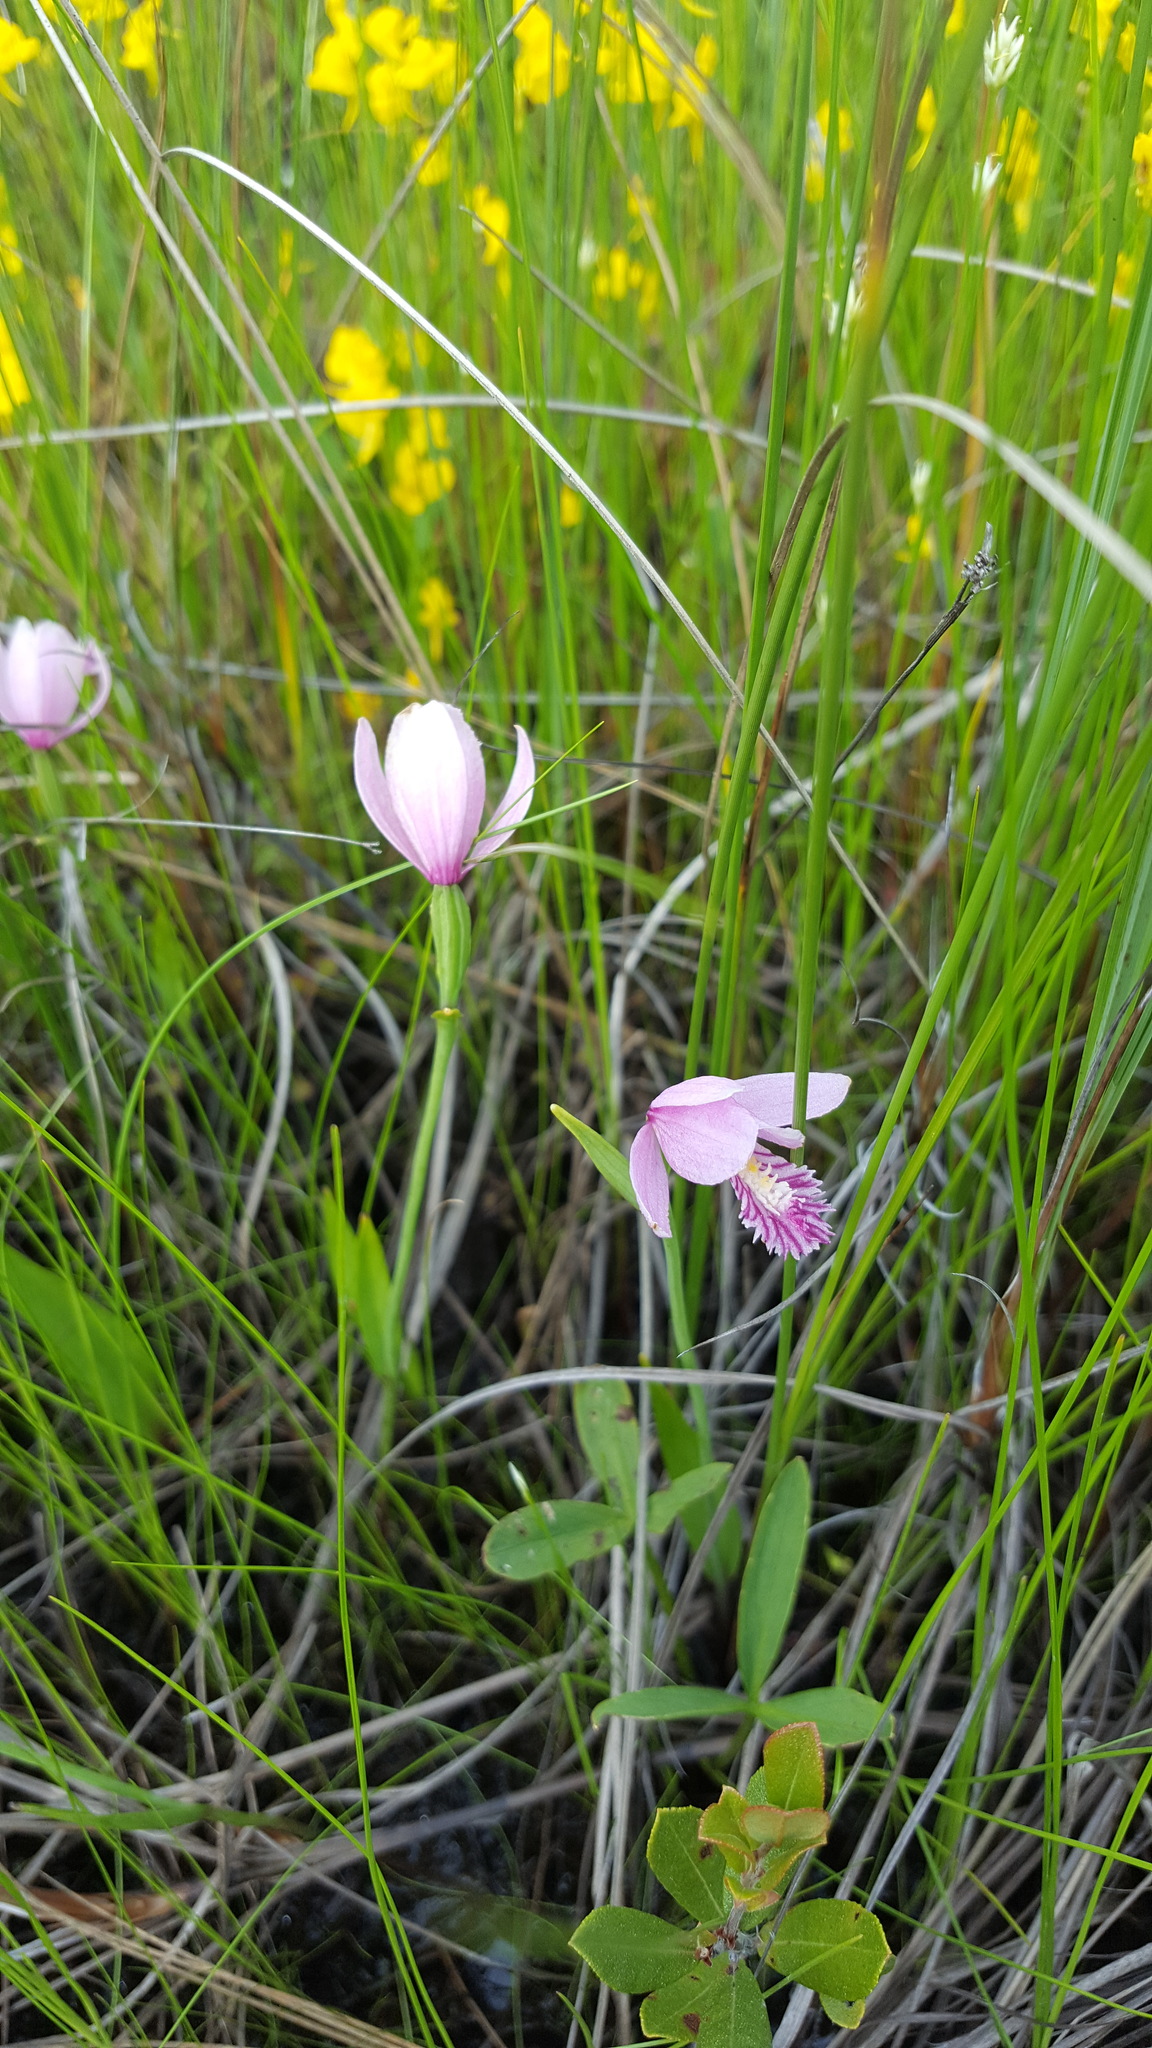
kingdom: Plantae
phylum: Tracheophyta
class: Liliopsida
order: Asparagales
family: Orchidaceae
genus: Pogonia
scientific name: Pogonia ophioglossoides
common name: Rose pogonia
